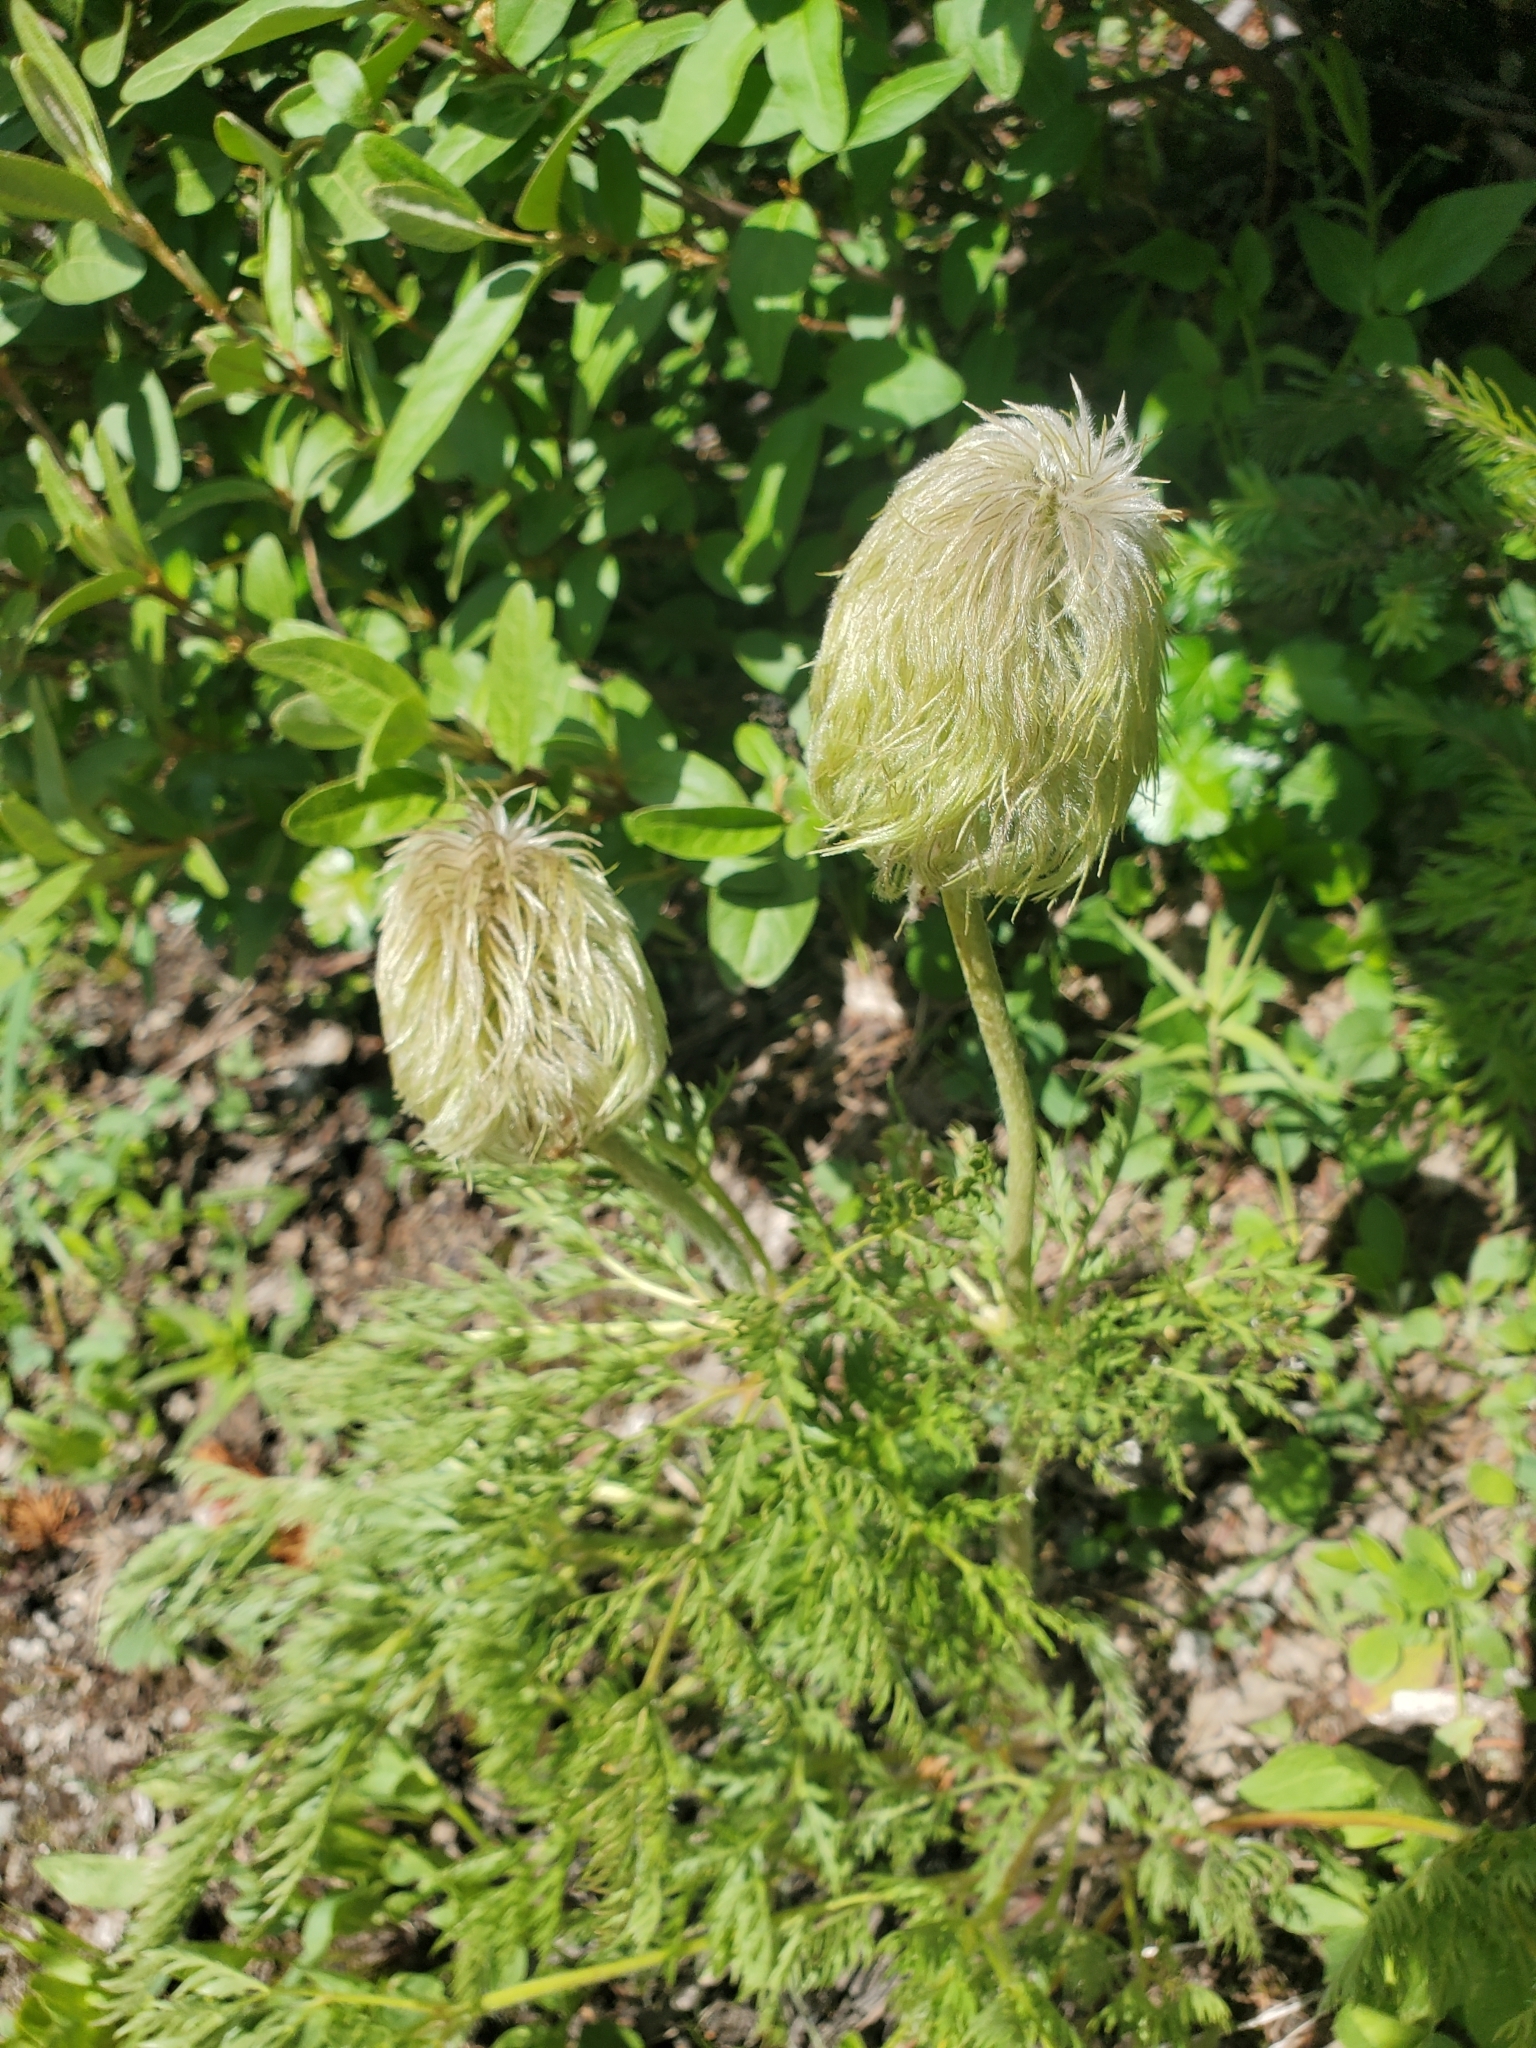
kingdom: Plantae
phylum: Tracheophyta
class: Magnoliopsida
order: Ranunculales
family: Ranunculaceae
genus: Pulsatilla
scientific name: Pulsatilla occidentalis
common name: Mountain pasqueflower
